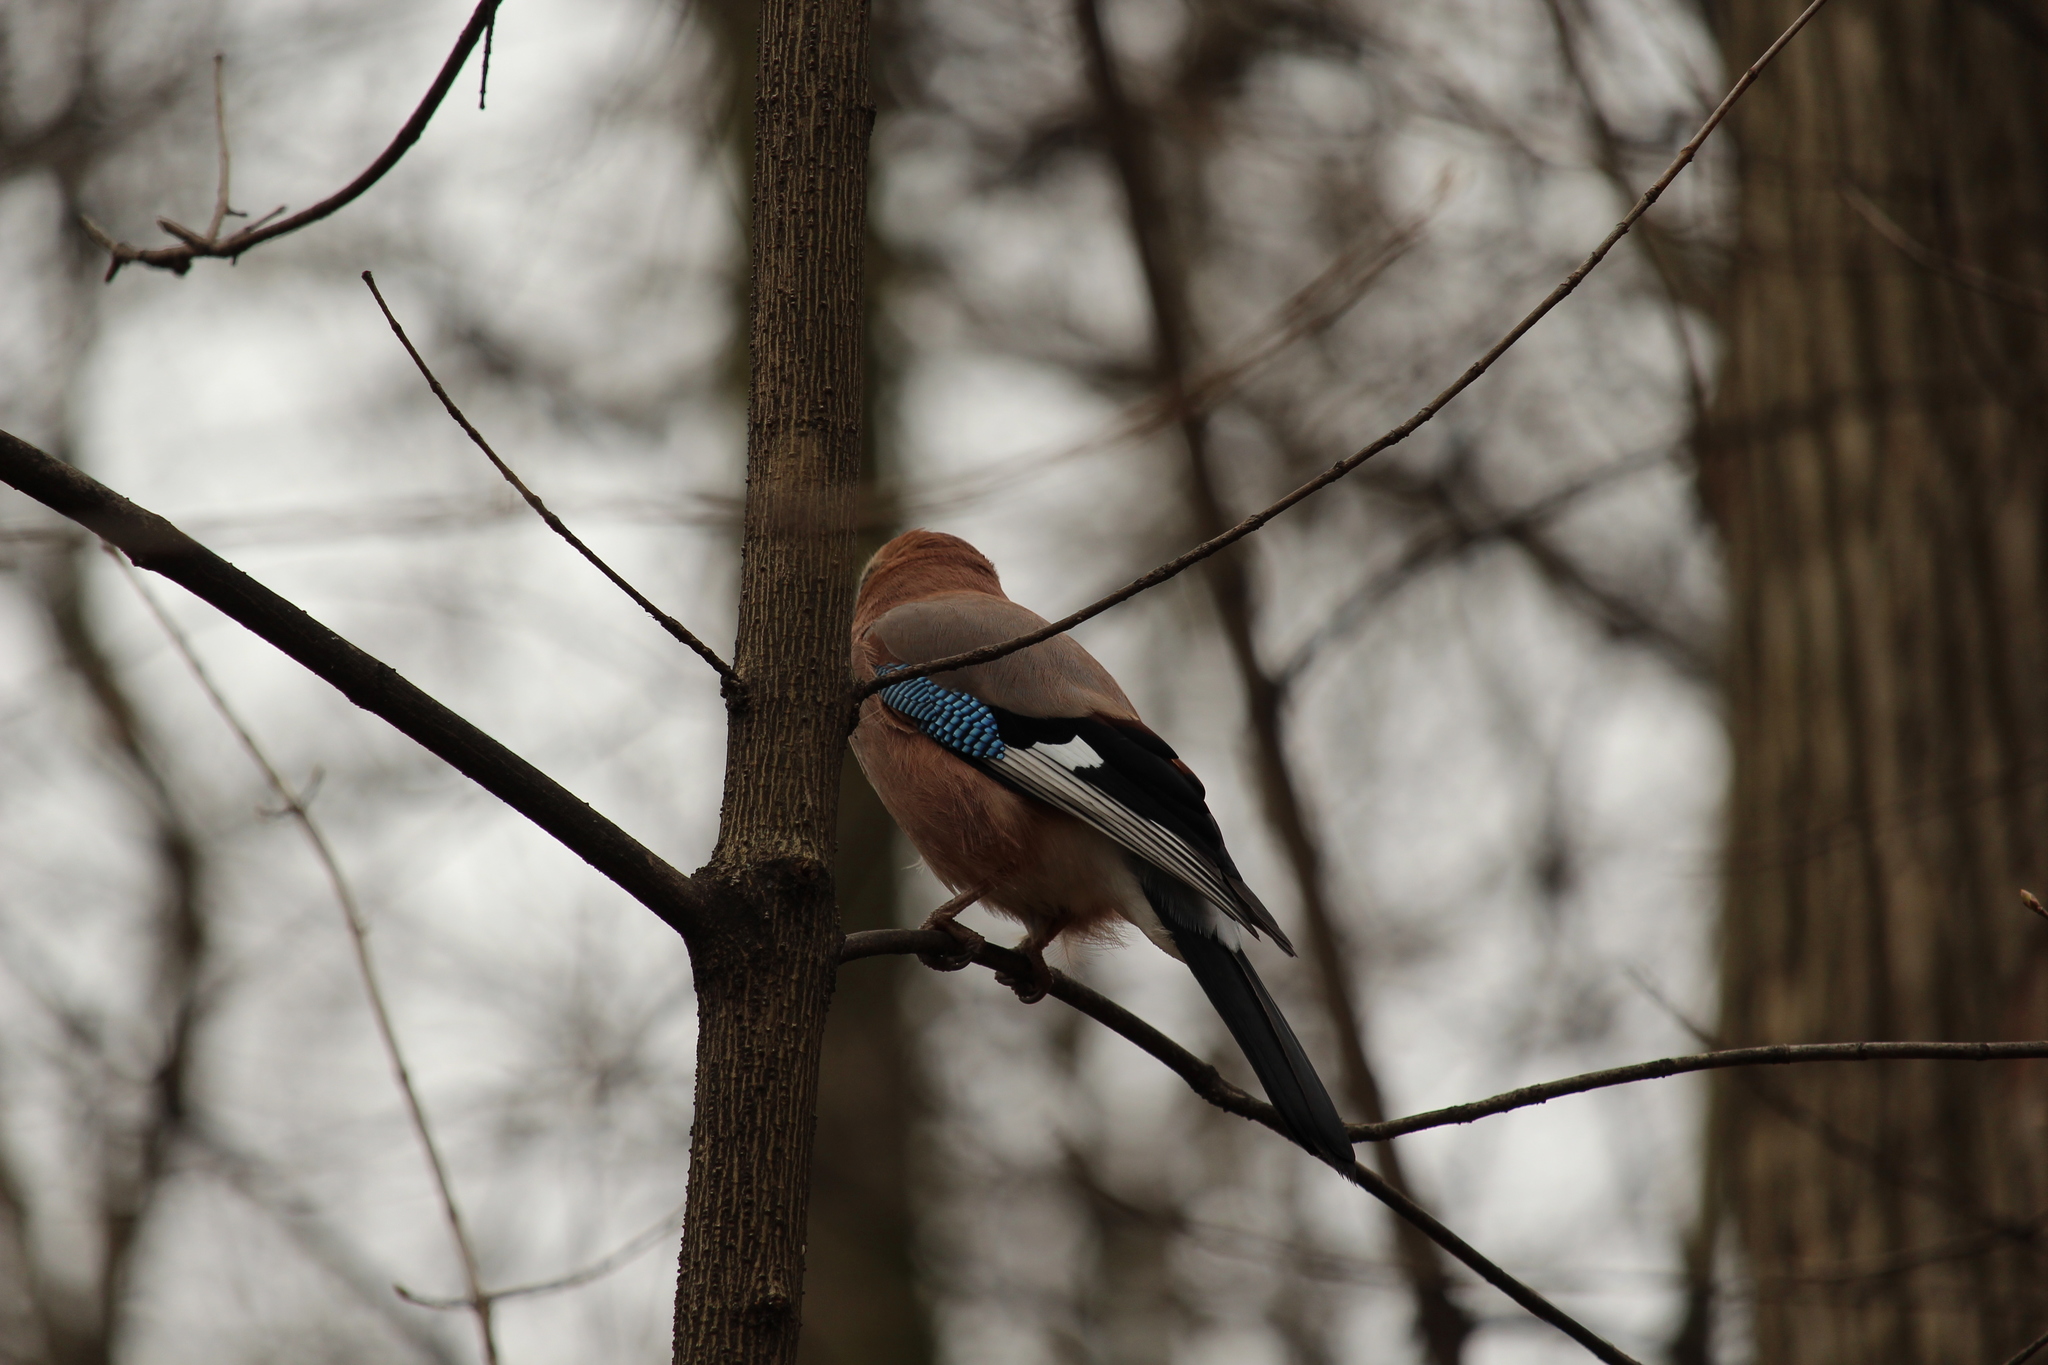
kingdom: Animalia
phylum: Chordata
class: Aves
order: Passeriformes
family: Corvidae
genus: Garrulus
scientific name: Garrulus glandarius
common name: Eurasian jay
